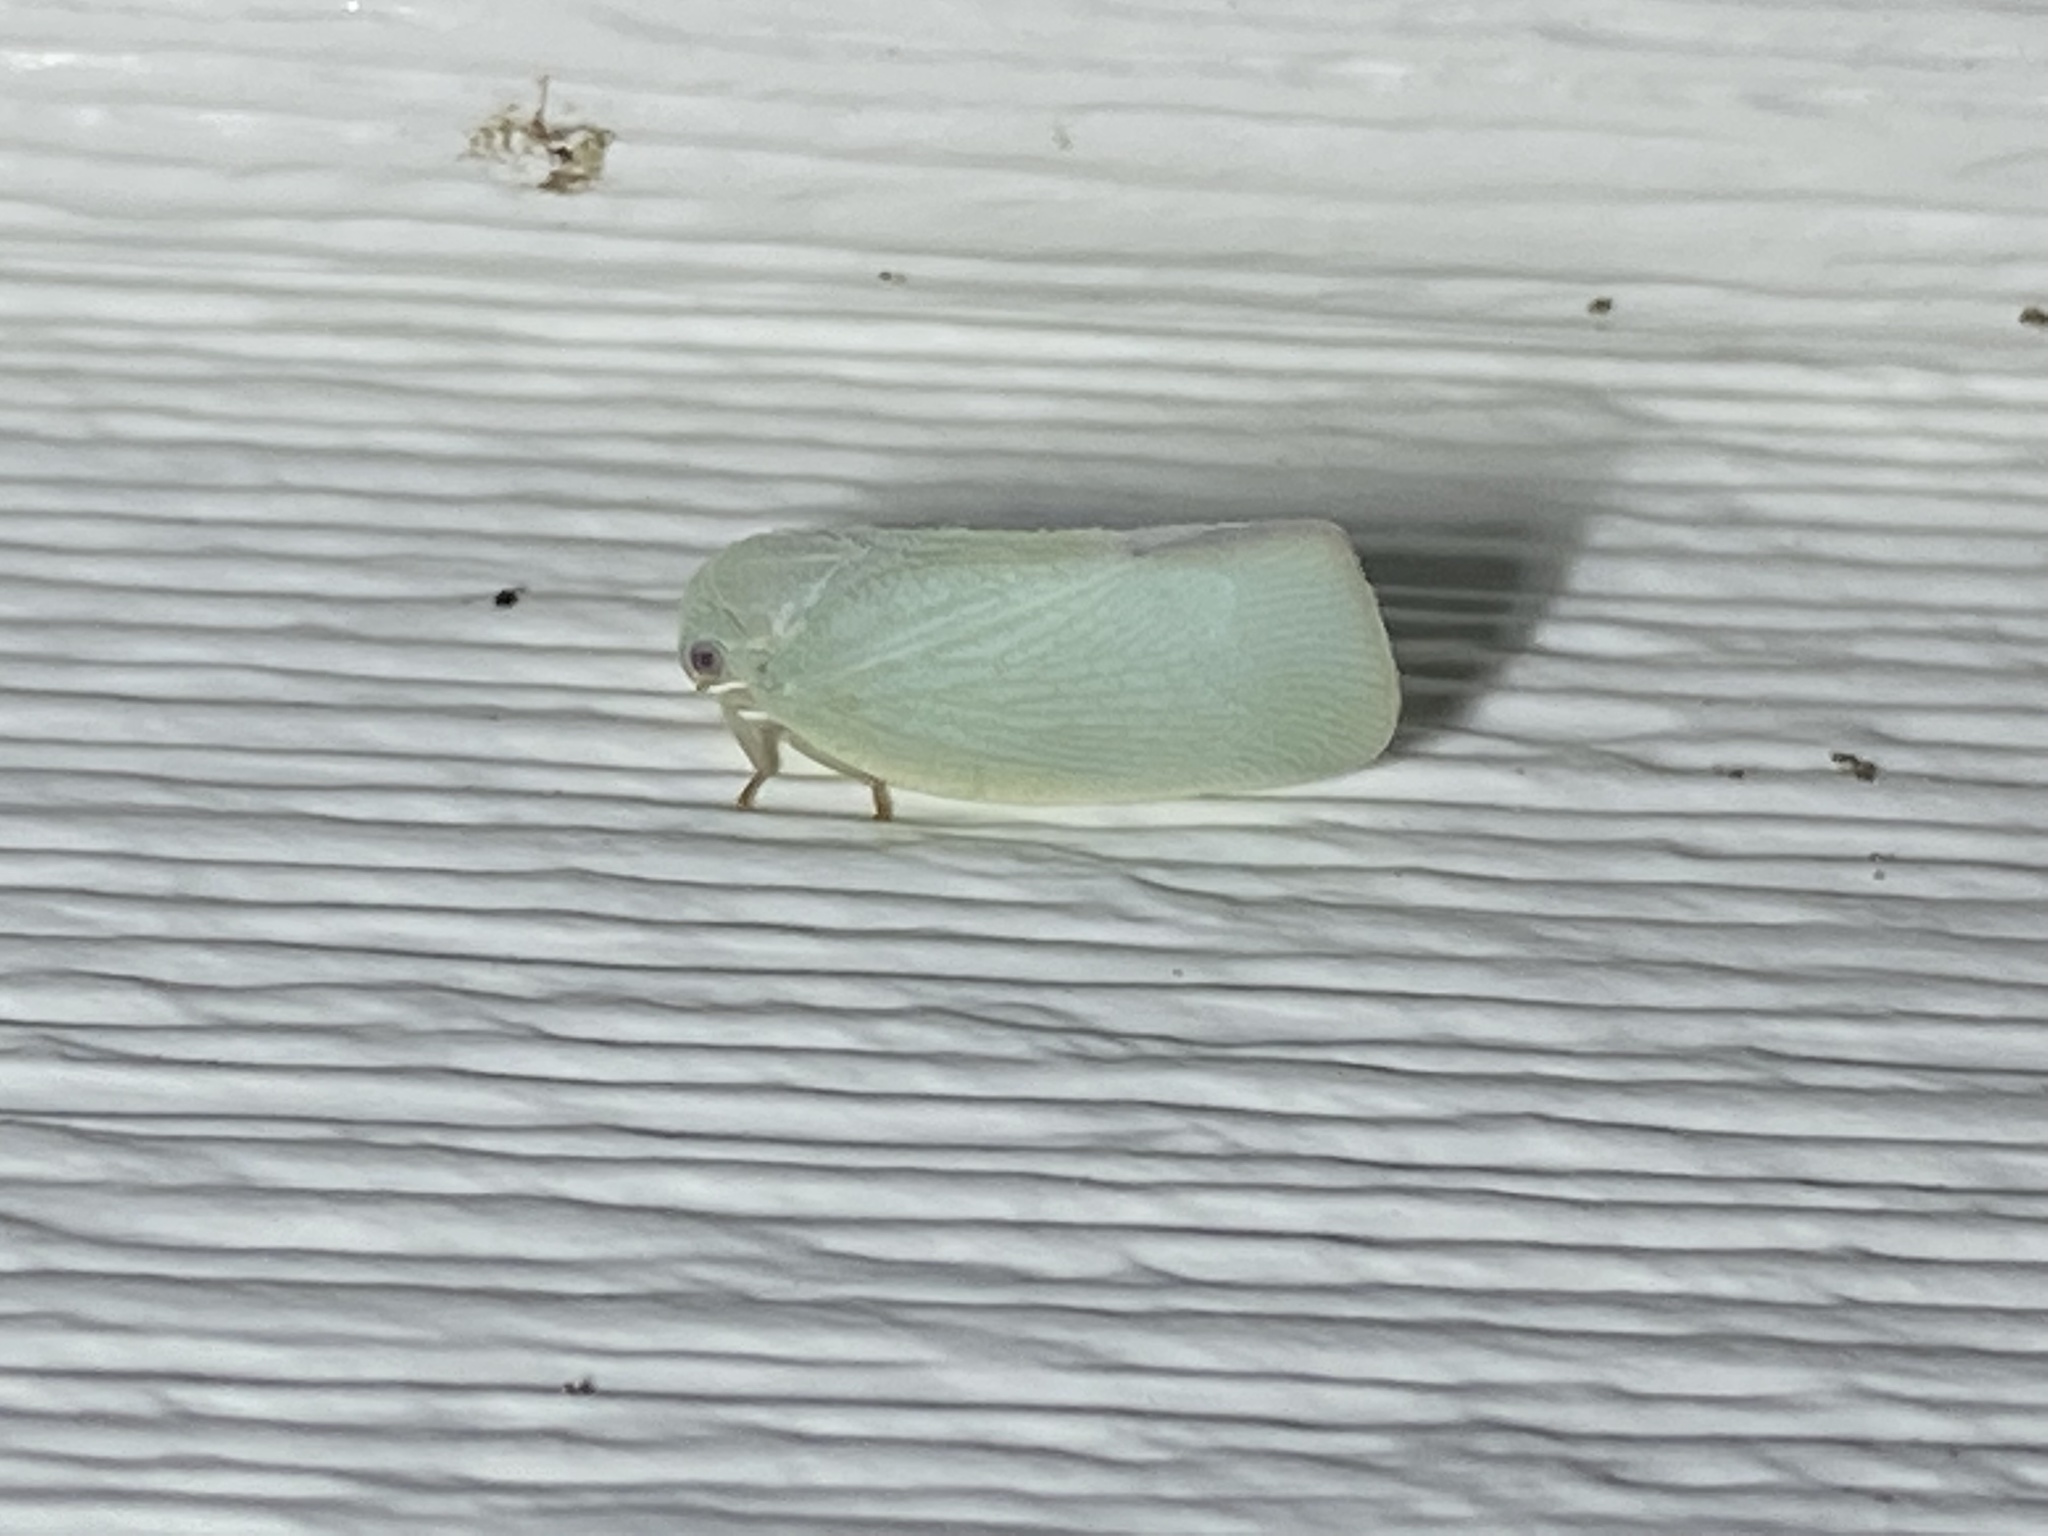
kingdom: Animalia
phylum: Arthropoda
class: Insecta
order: Hemiptera
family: Flatidae
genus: Flatormenis
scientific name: Flatormenis proxima
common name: Northern flatid planthopper
